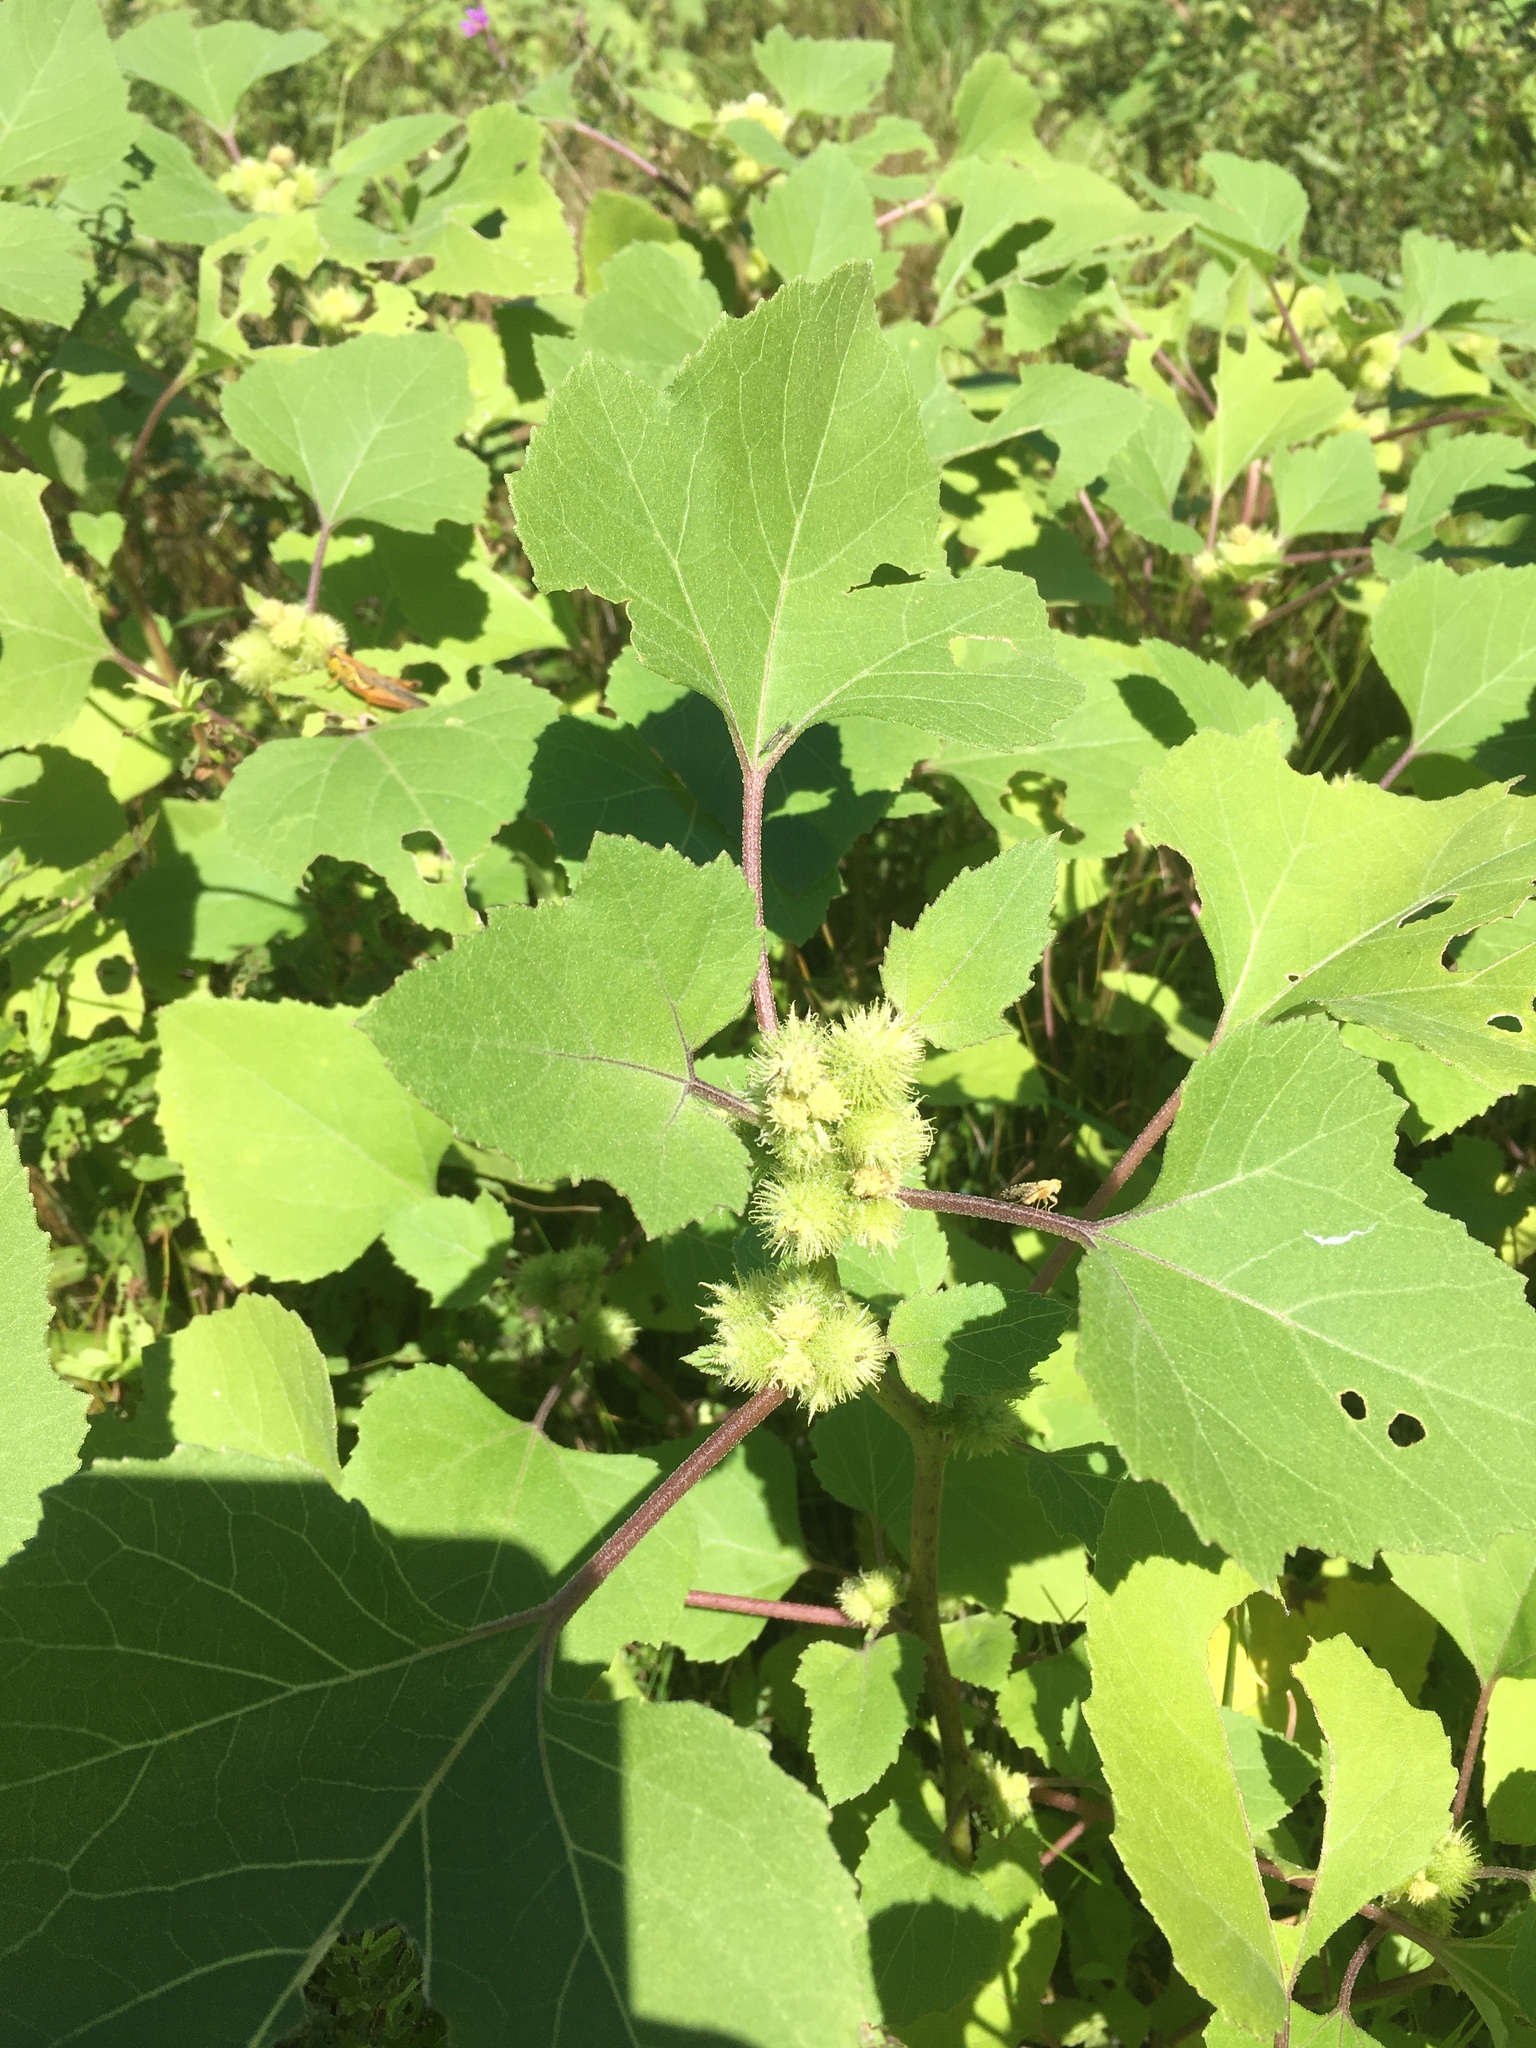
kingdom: Plantae
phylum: Tracheophyta
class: Magnoliopsida
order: Asterales
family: Asteraceae
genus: Xanthium
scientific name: Xanthium strumarium
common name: Rough cocklebur
